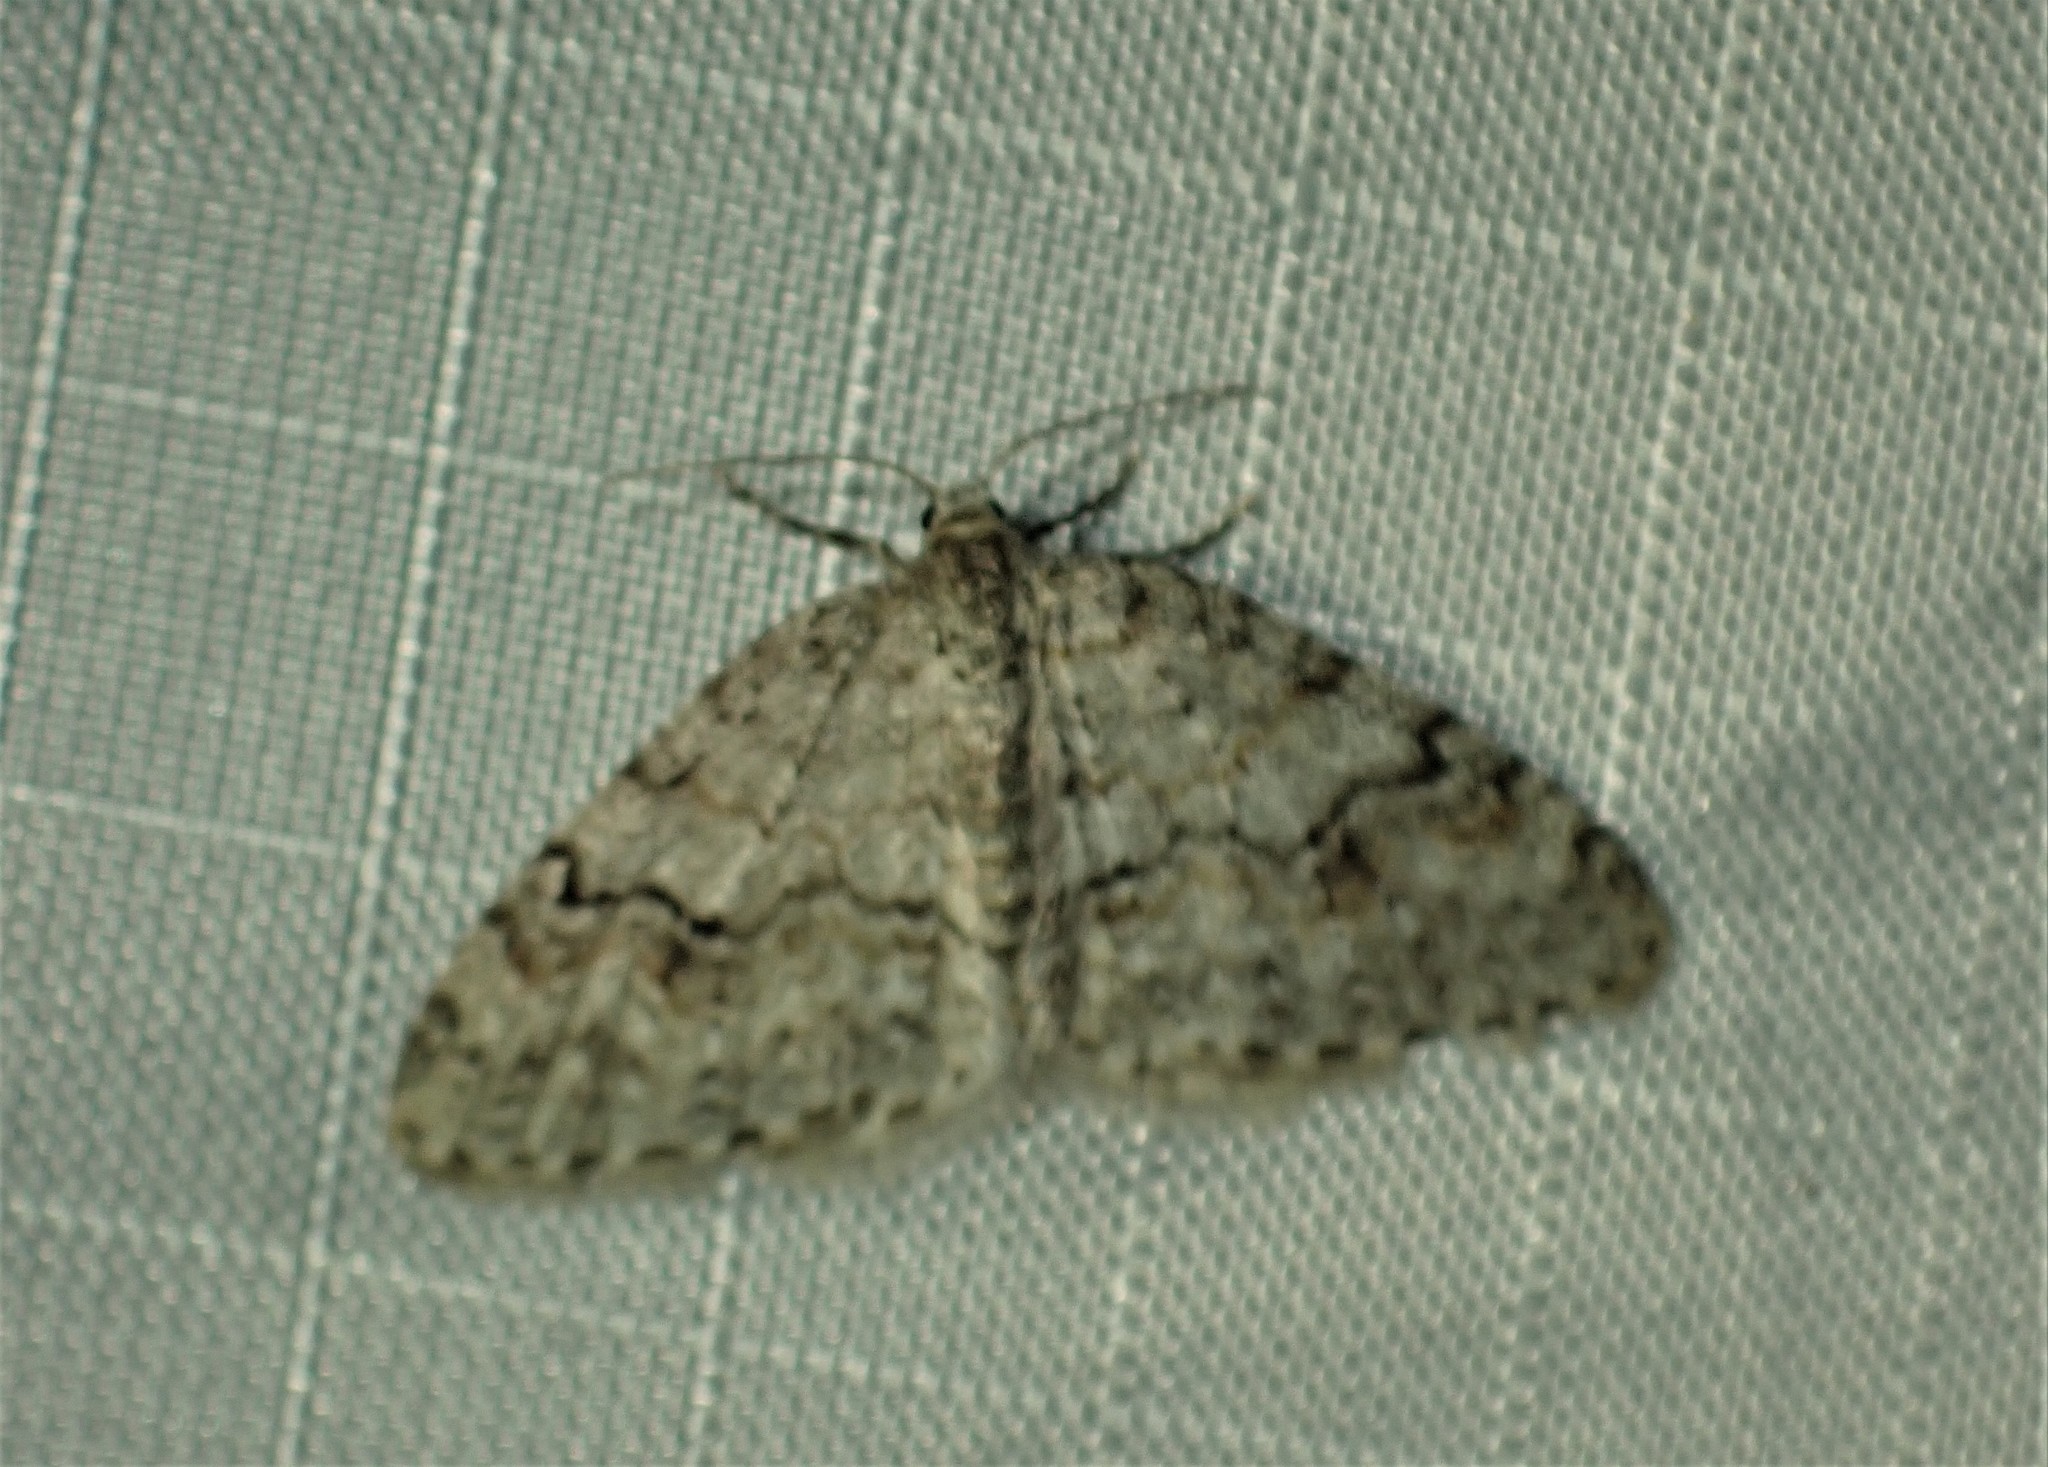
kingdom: Animalia
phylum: Arthropoda
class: Insecta
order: Lepidoptera
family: Geometridae
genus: Venusia
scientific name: Venusia comptaria
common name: Brown-shaded carpet
